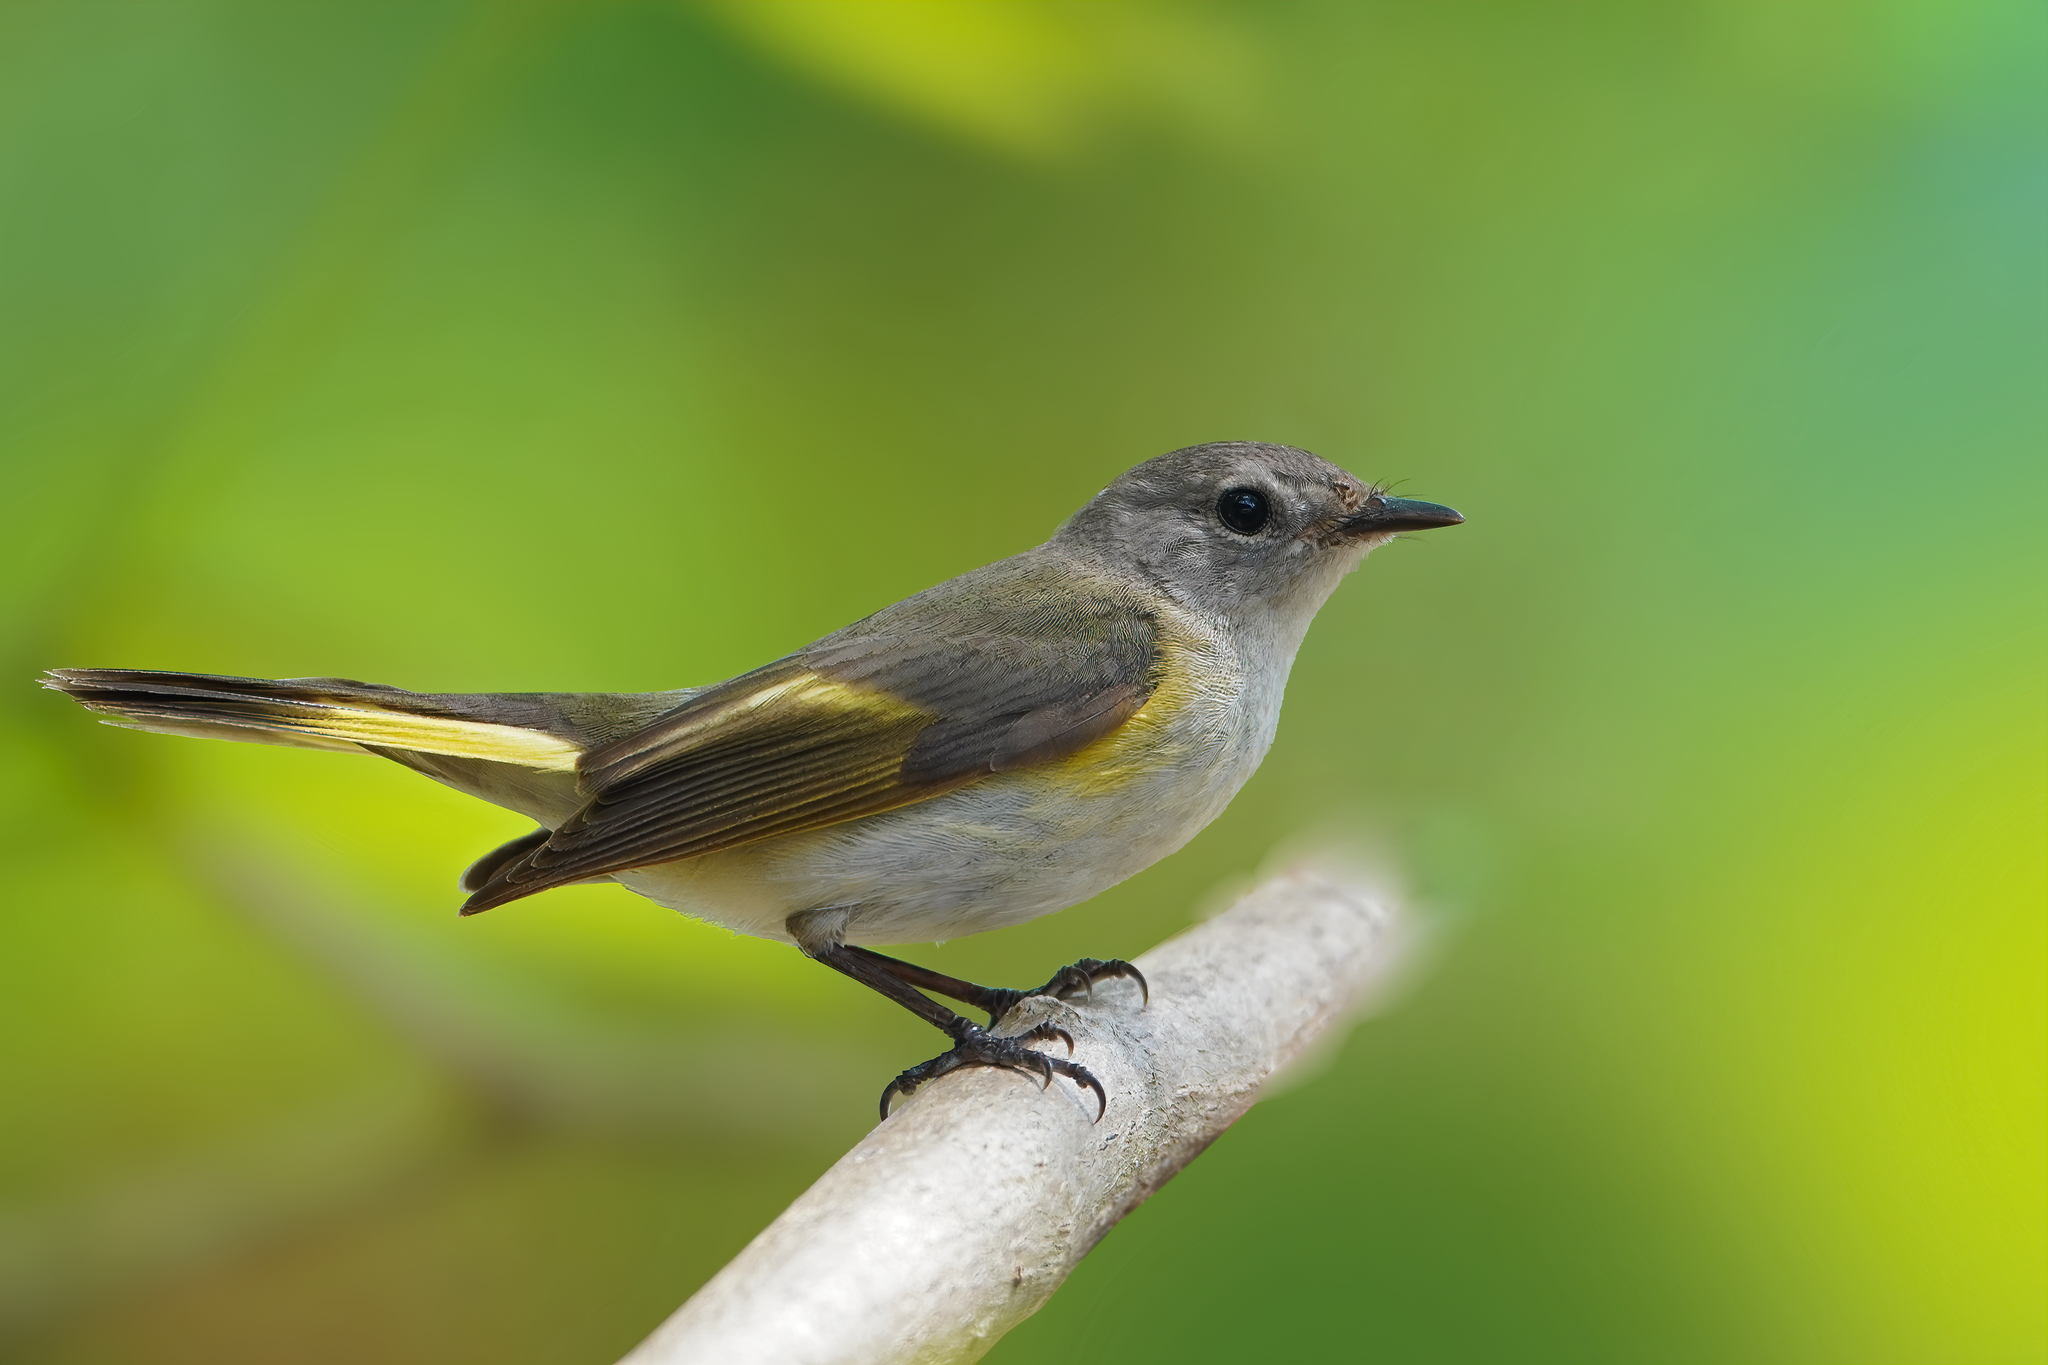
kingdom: Animalia
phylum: Chordata
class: Aves
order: Passeriformes
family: Parulidae
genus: Setophaga
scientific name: Setophaga ruticilla
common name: American redstart
